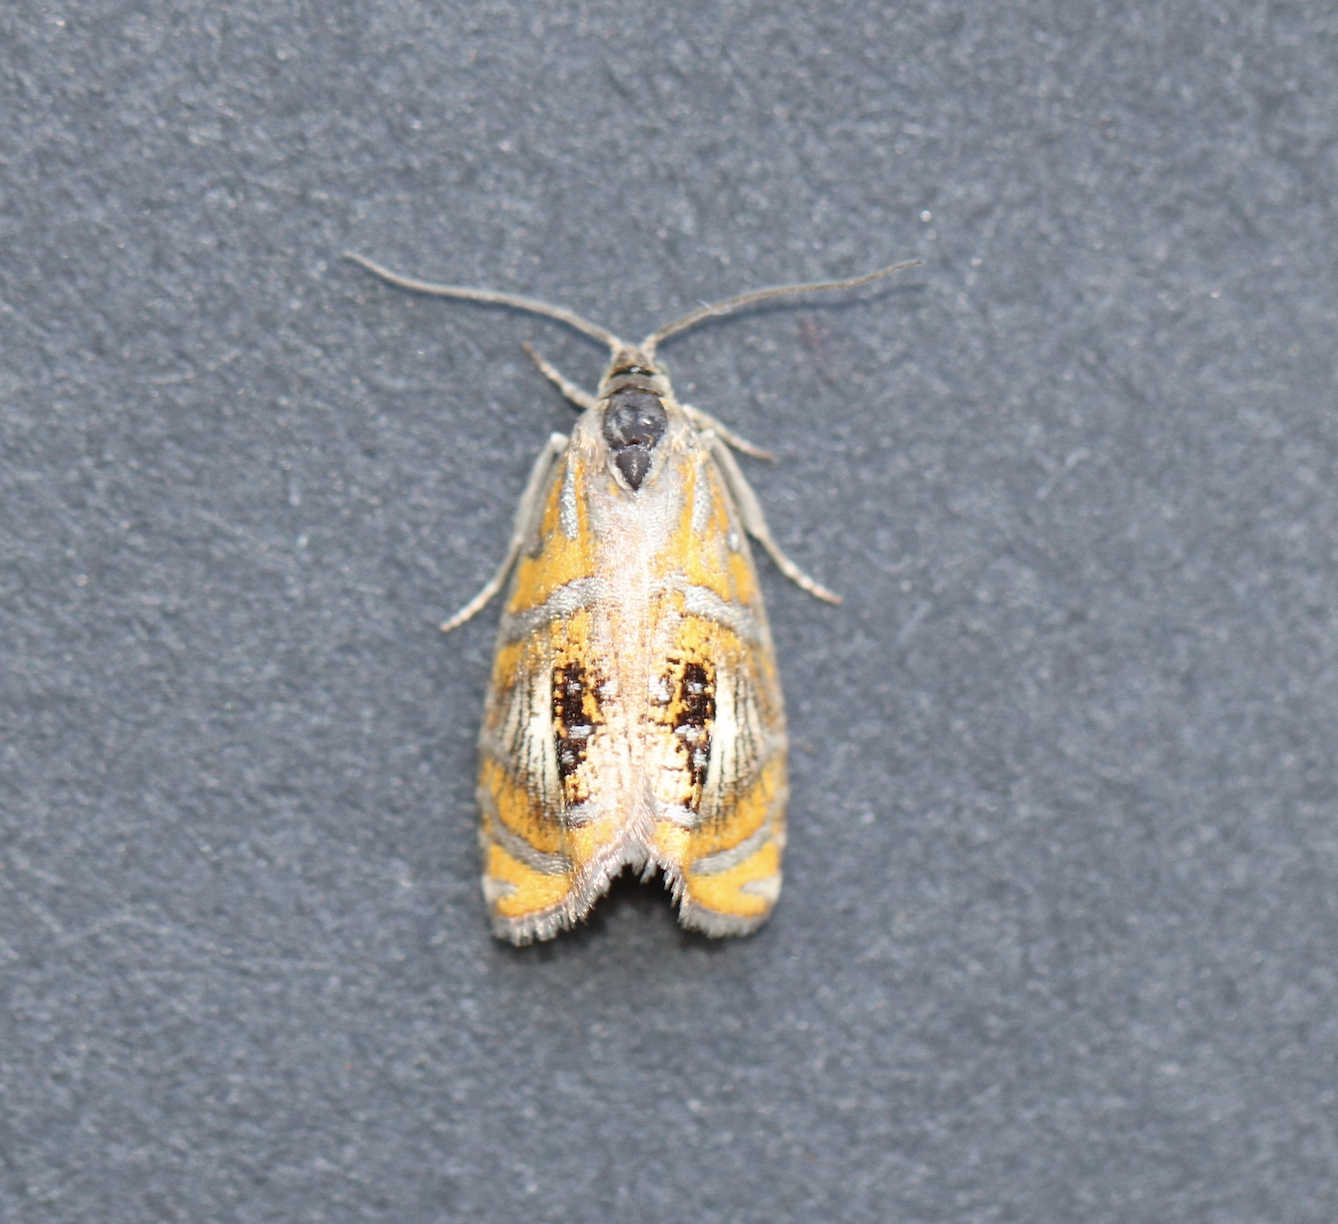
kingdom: Animalia
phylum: Arthropoda
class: Insecta
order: Lepidoptera
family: Tortricidae
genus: Olethreutes
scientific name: Olethreutes arcuella
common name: Arched marble
